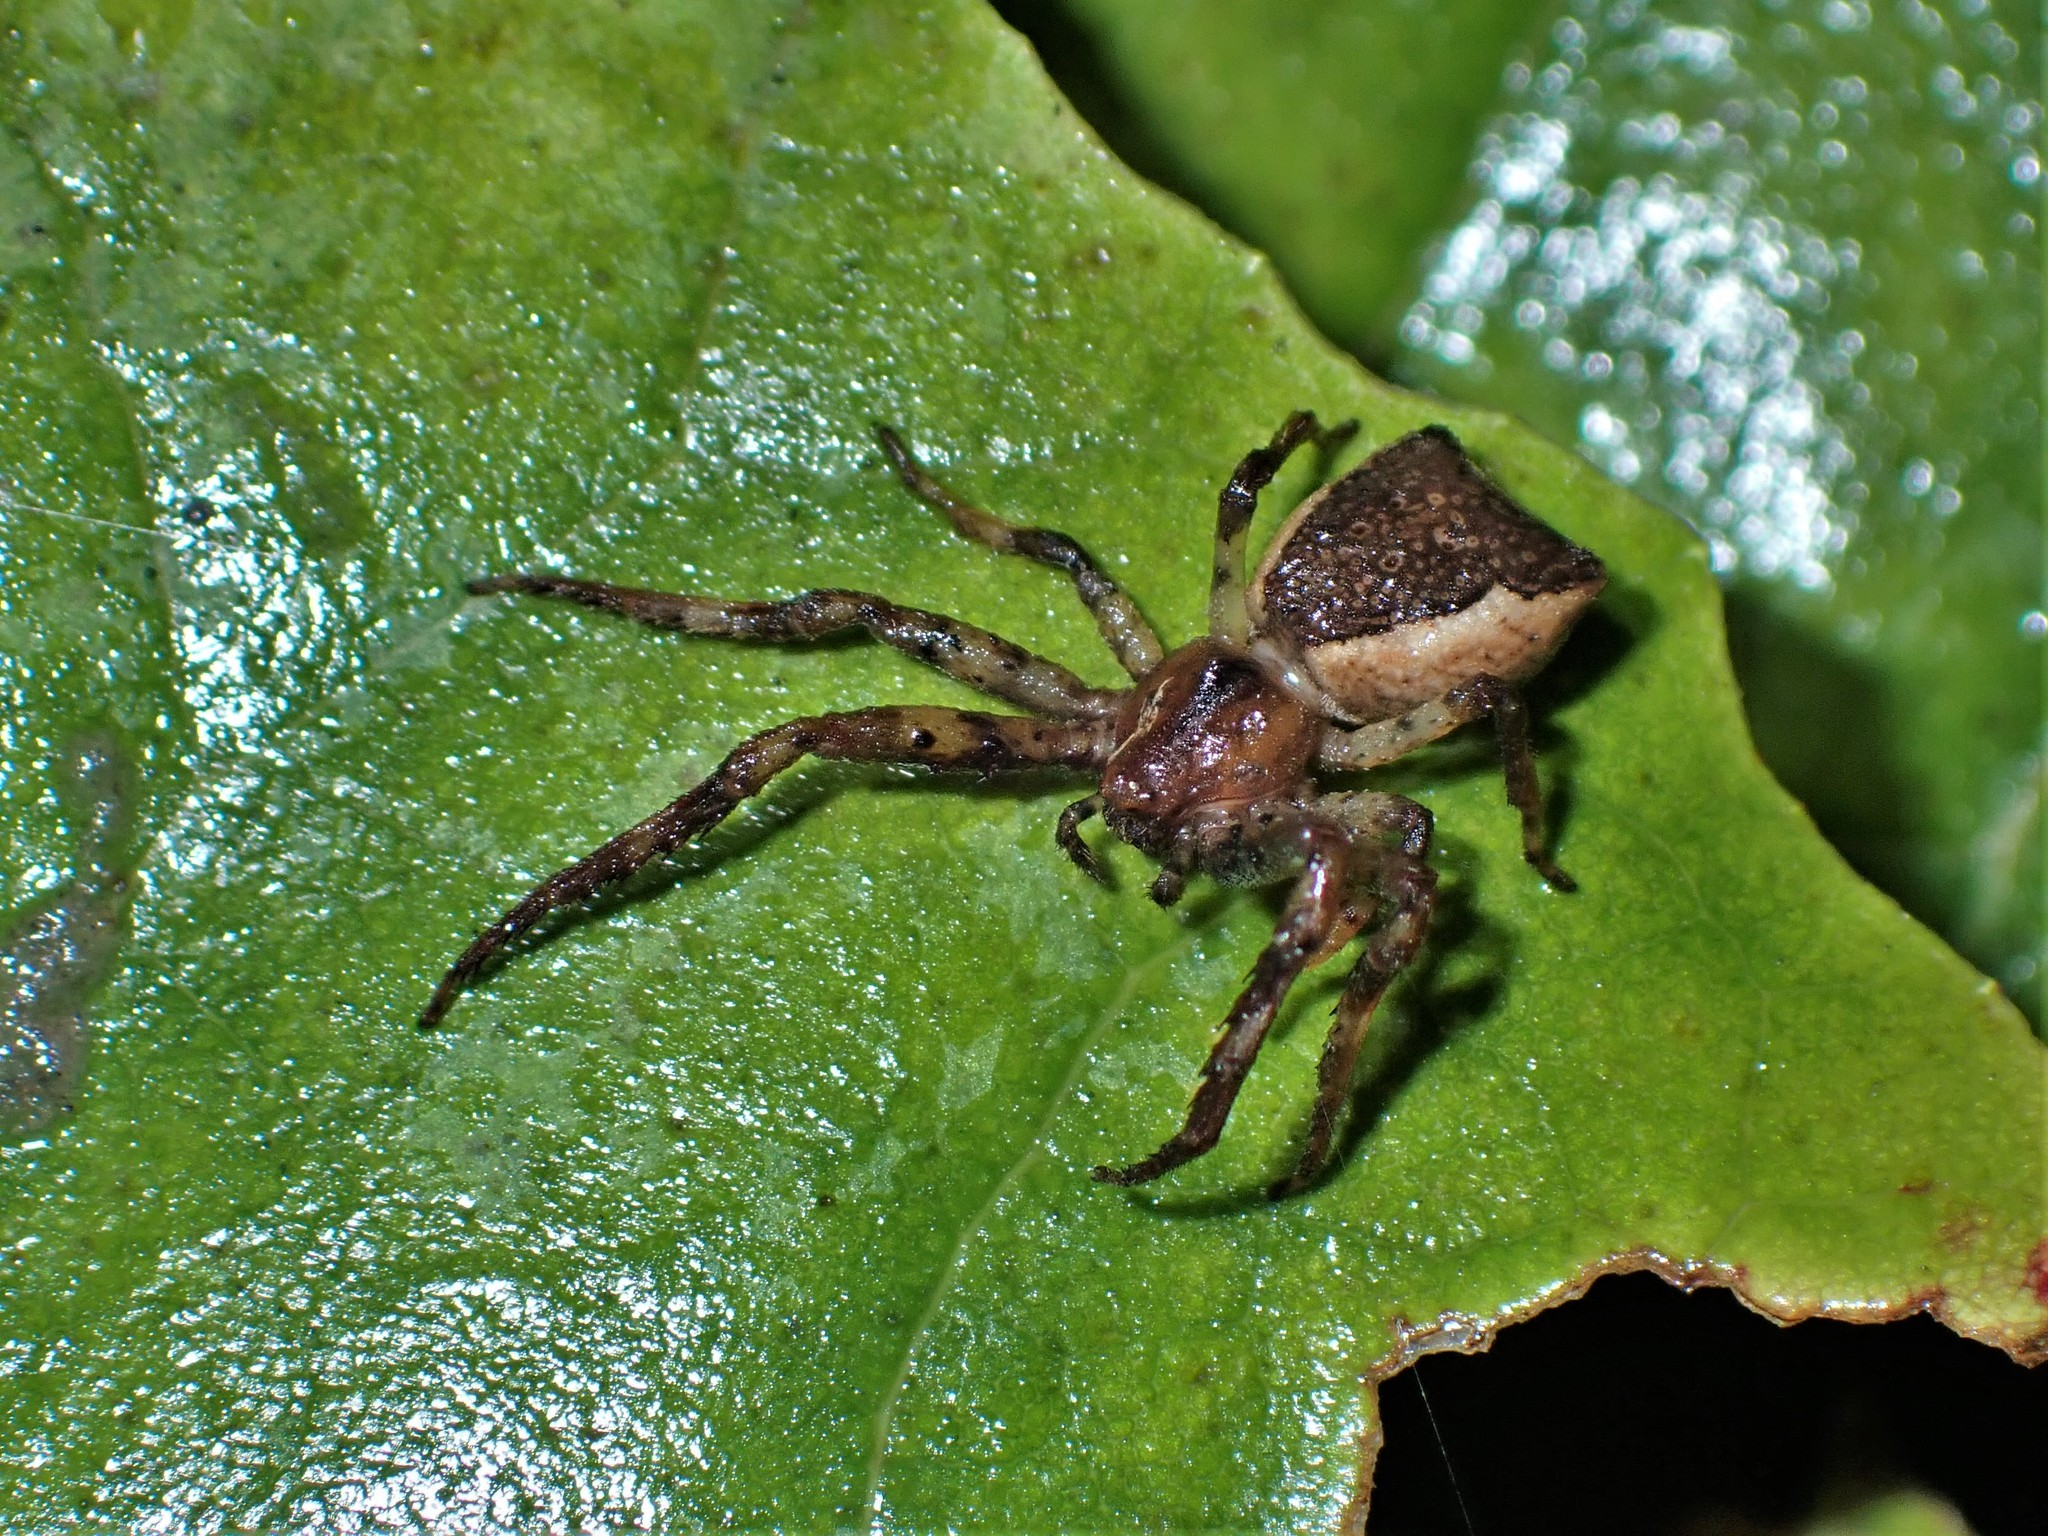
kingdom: Animalia
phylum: Arthropoda
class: Arachnida
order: Araneae
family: Thomisidae
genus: Sidymella
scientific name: Sidymella angularis
